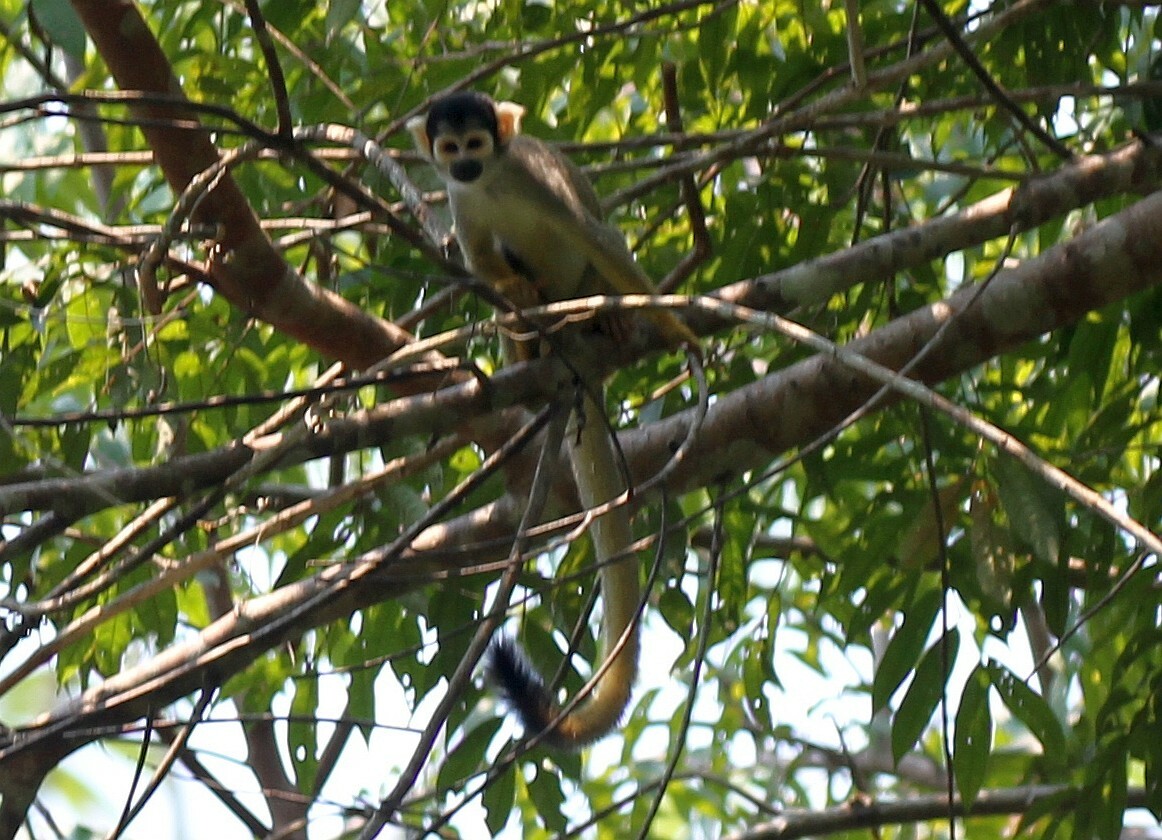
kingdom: Animalia
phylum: Chordata
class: Mammalia
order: Primates
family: Cebidae
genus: Saimiri
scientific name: Saimiri boliviensis
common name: Black-capped squirrel monkey
